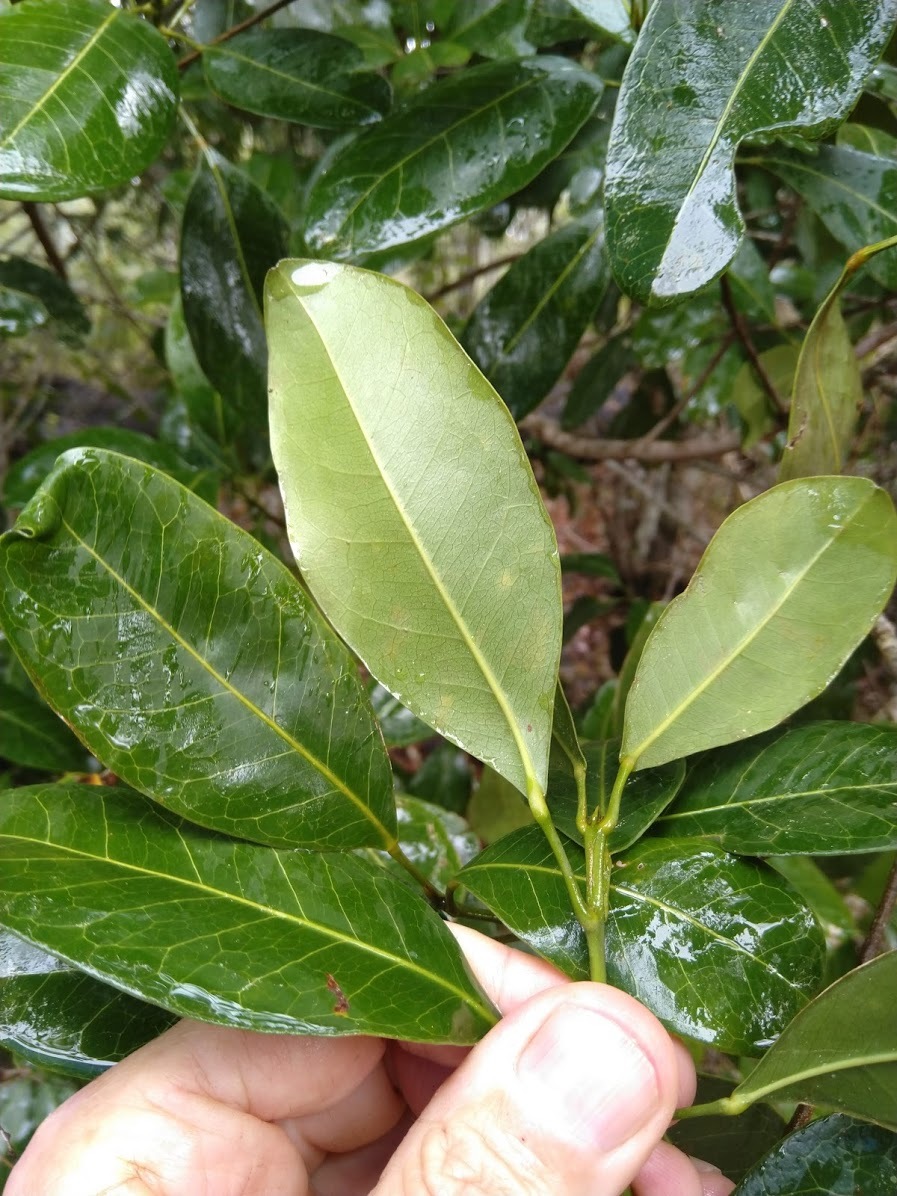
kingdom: Plantae
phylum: Tracheophyta
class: Magnoliopsida
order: Sapindales
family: Rutaceae
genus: Acronychia
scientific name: Acronychia imperforata
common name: Beach acronychia
